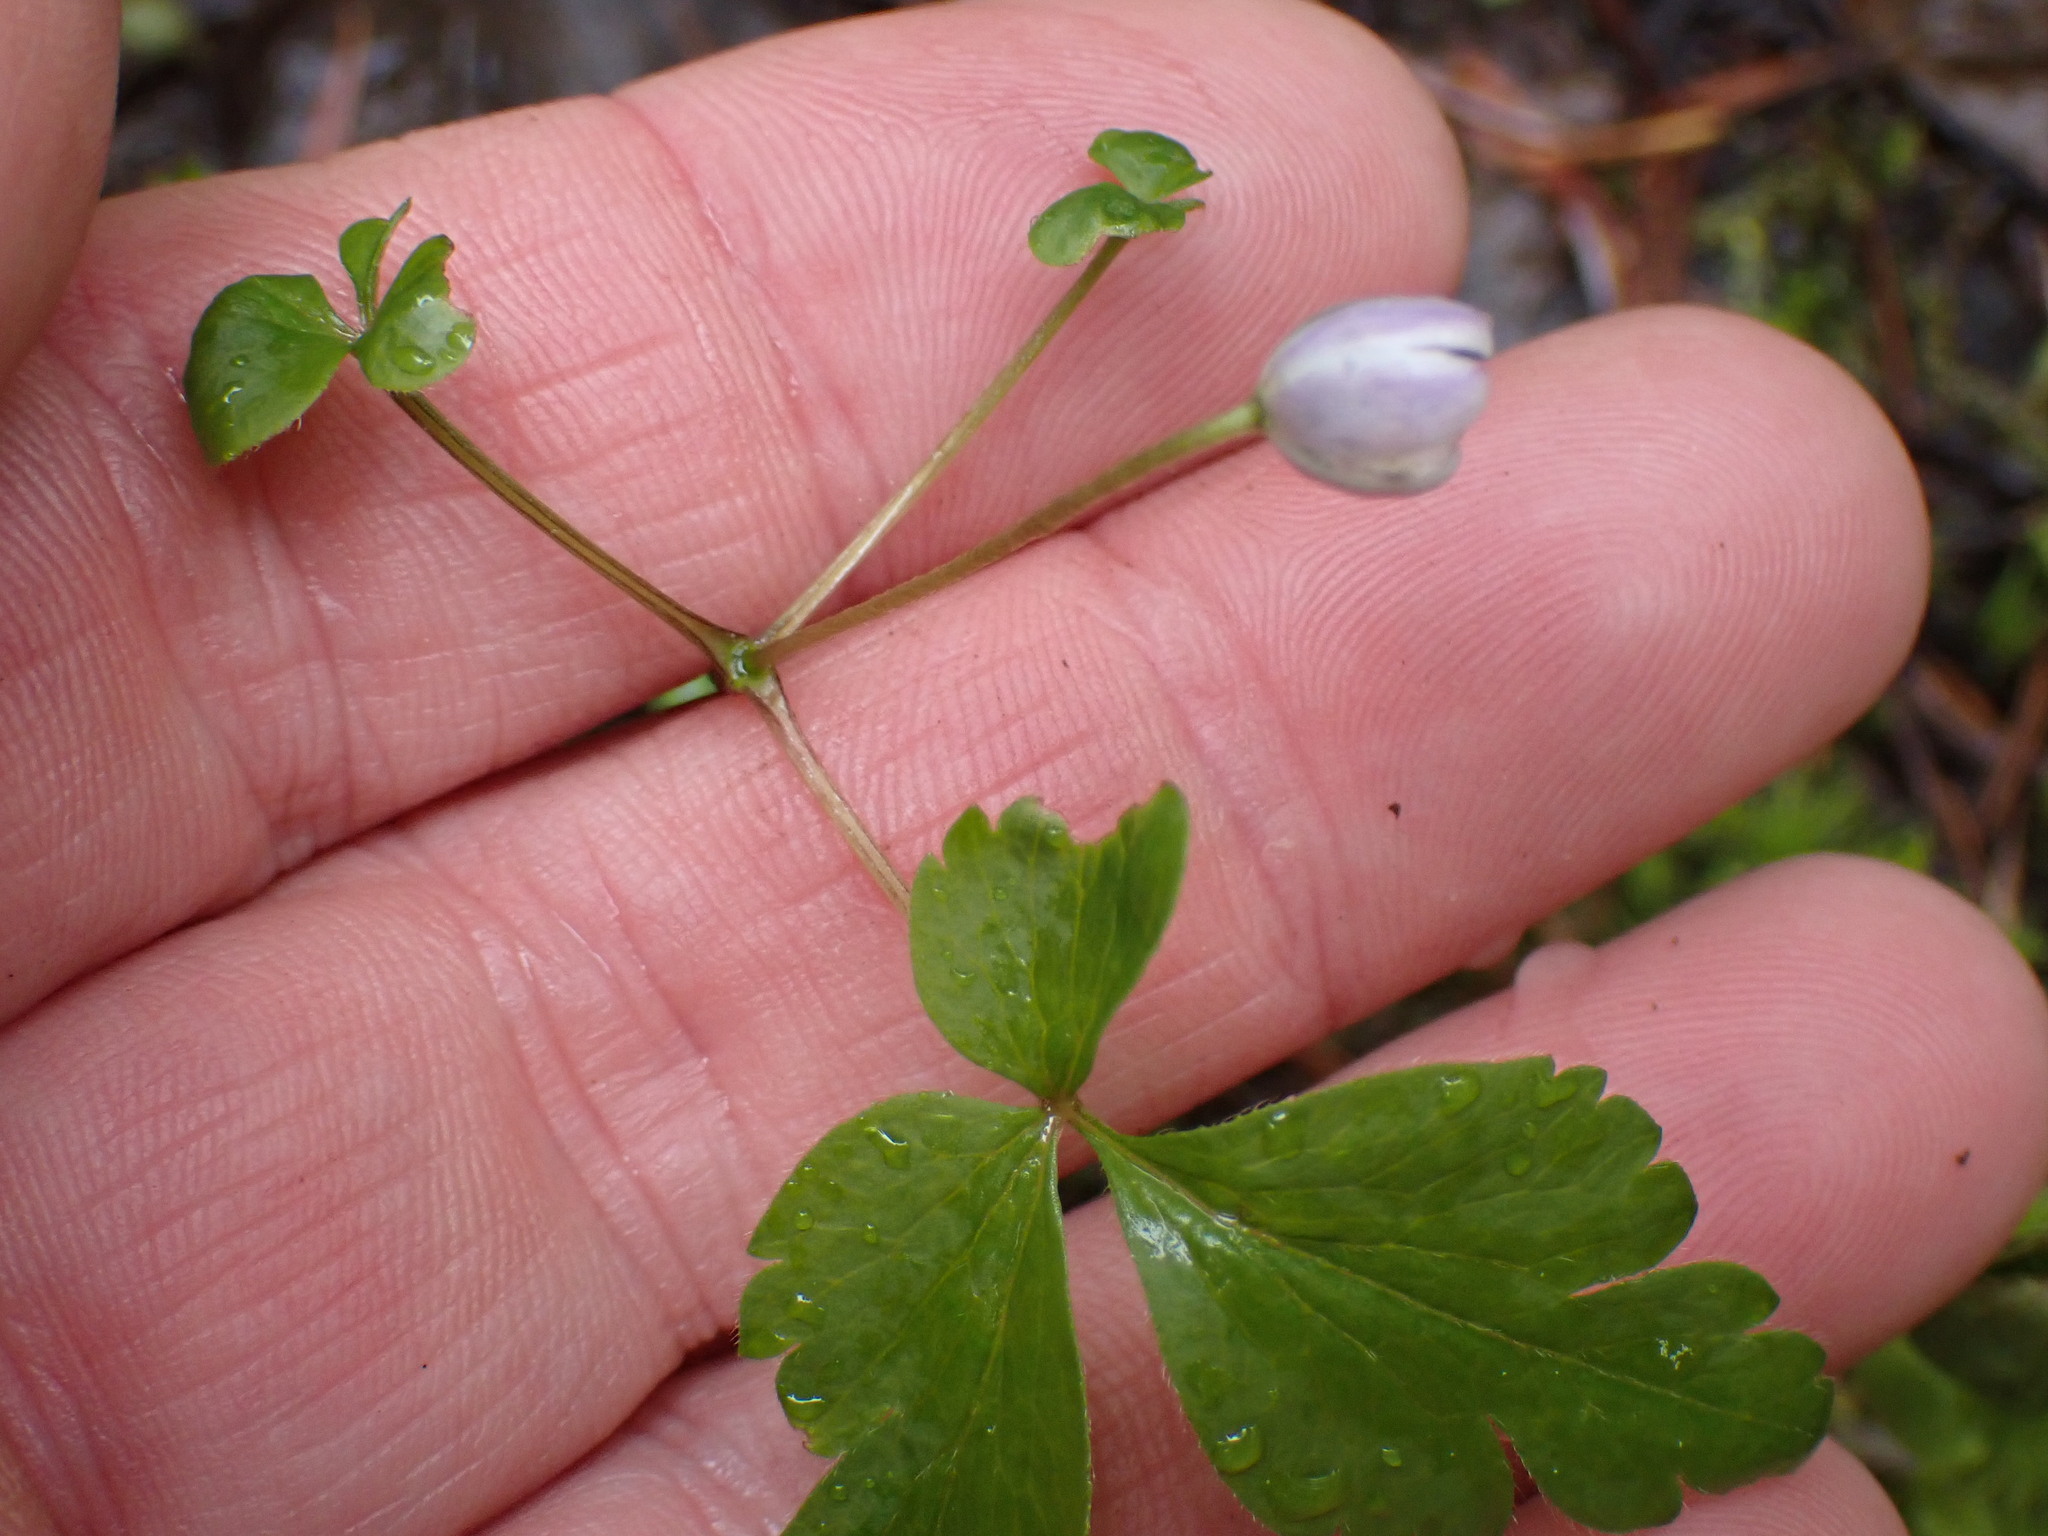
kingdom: Plantae
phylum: Tracheophyta
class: Magnoliopsida
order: Ranunculales
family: Ranunculaceae
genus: Anemone
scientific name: Anemone
